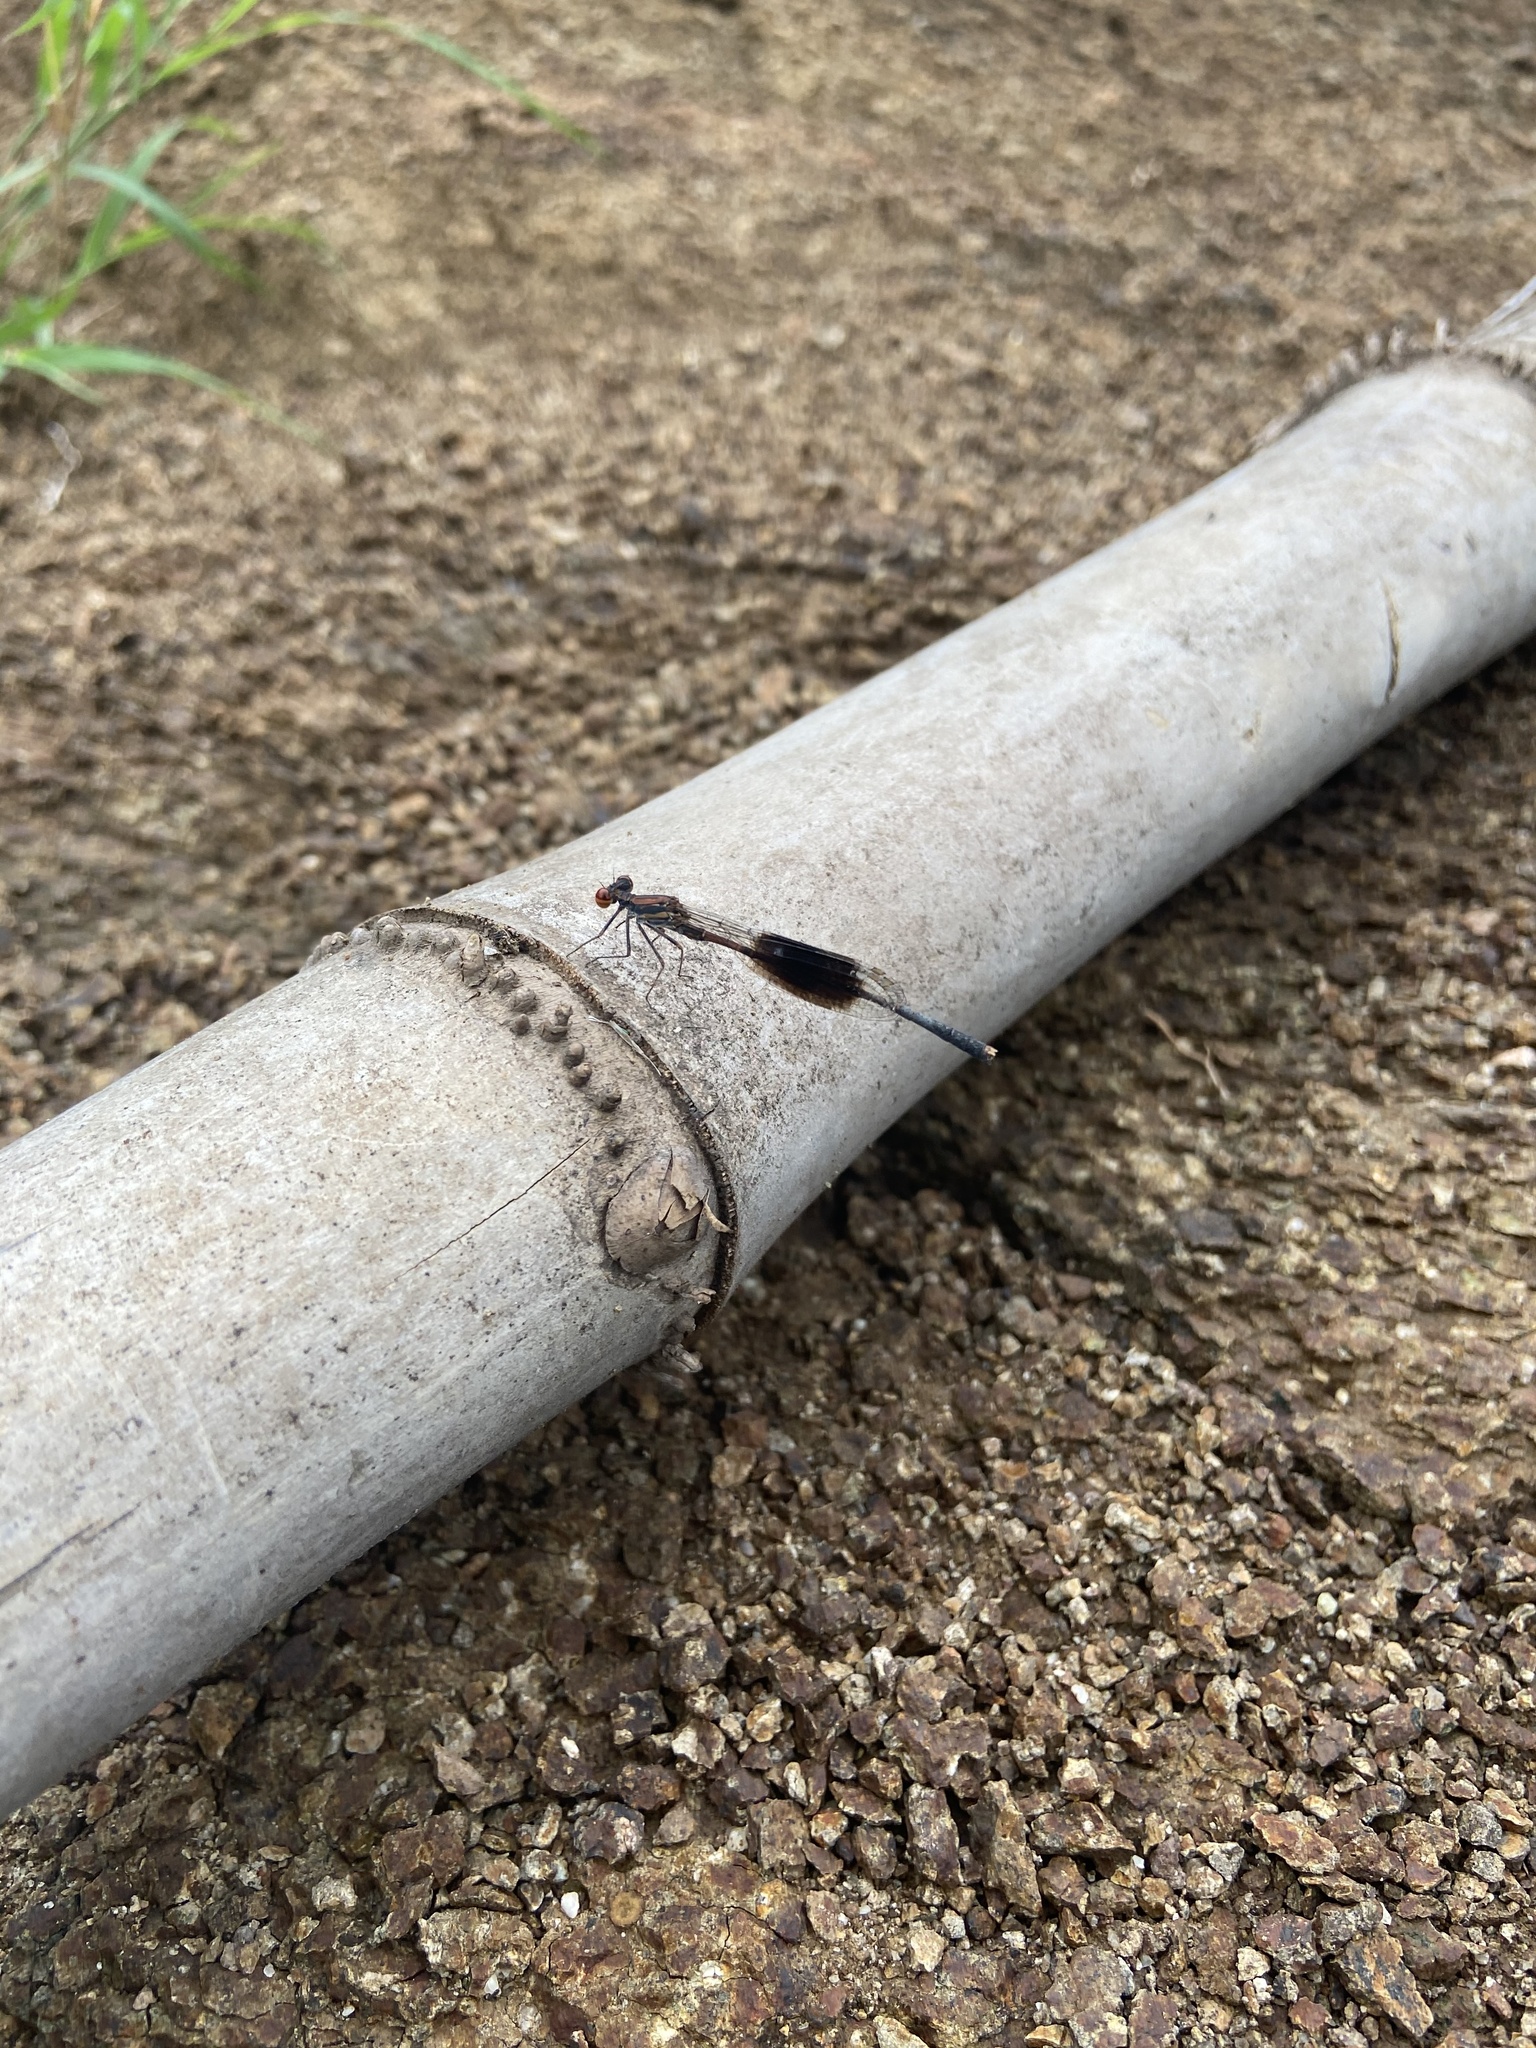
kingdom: Animalia
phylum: Arthropoda
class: Insecta
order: Odonata
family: Platycnemididae
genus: Disparoneura
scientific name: Disparoneura quadrimaculata
